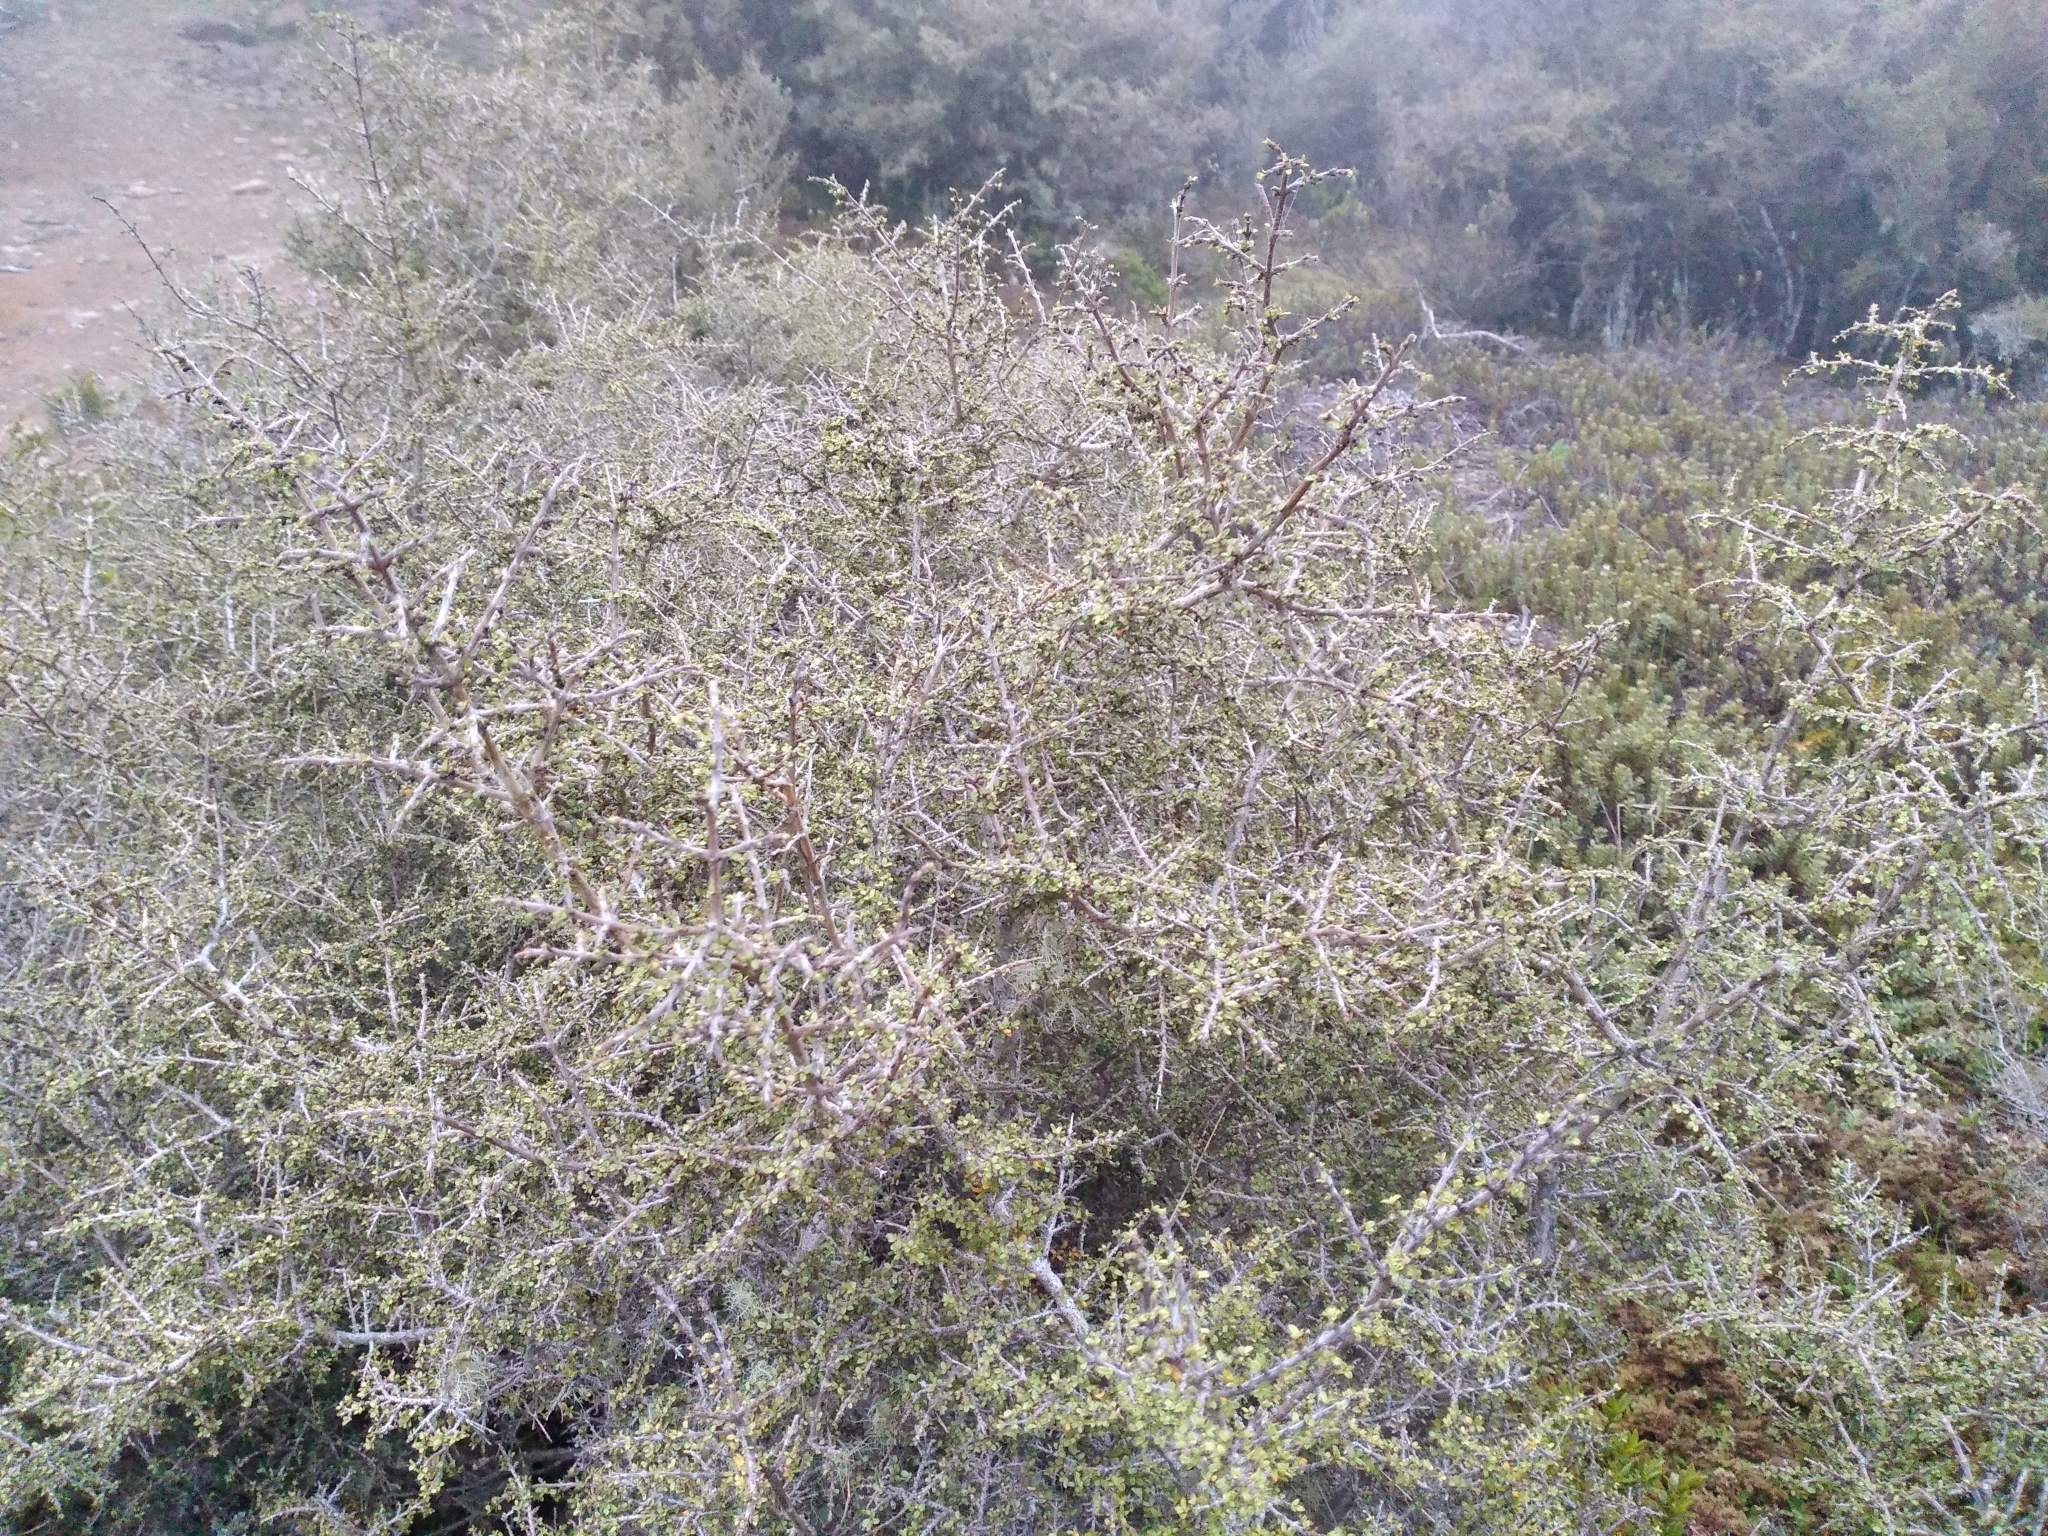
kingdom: Plantae
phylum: Tracheophyta
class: Magnoliopsida
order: Gentianales
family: Rubiaceae
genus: Coprosma
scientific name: Coprosma decurva
